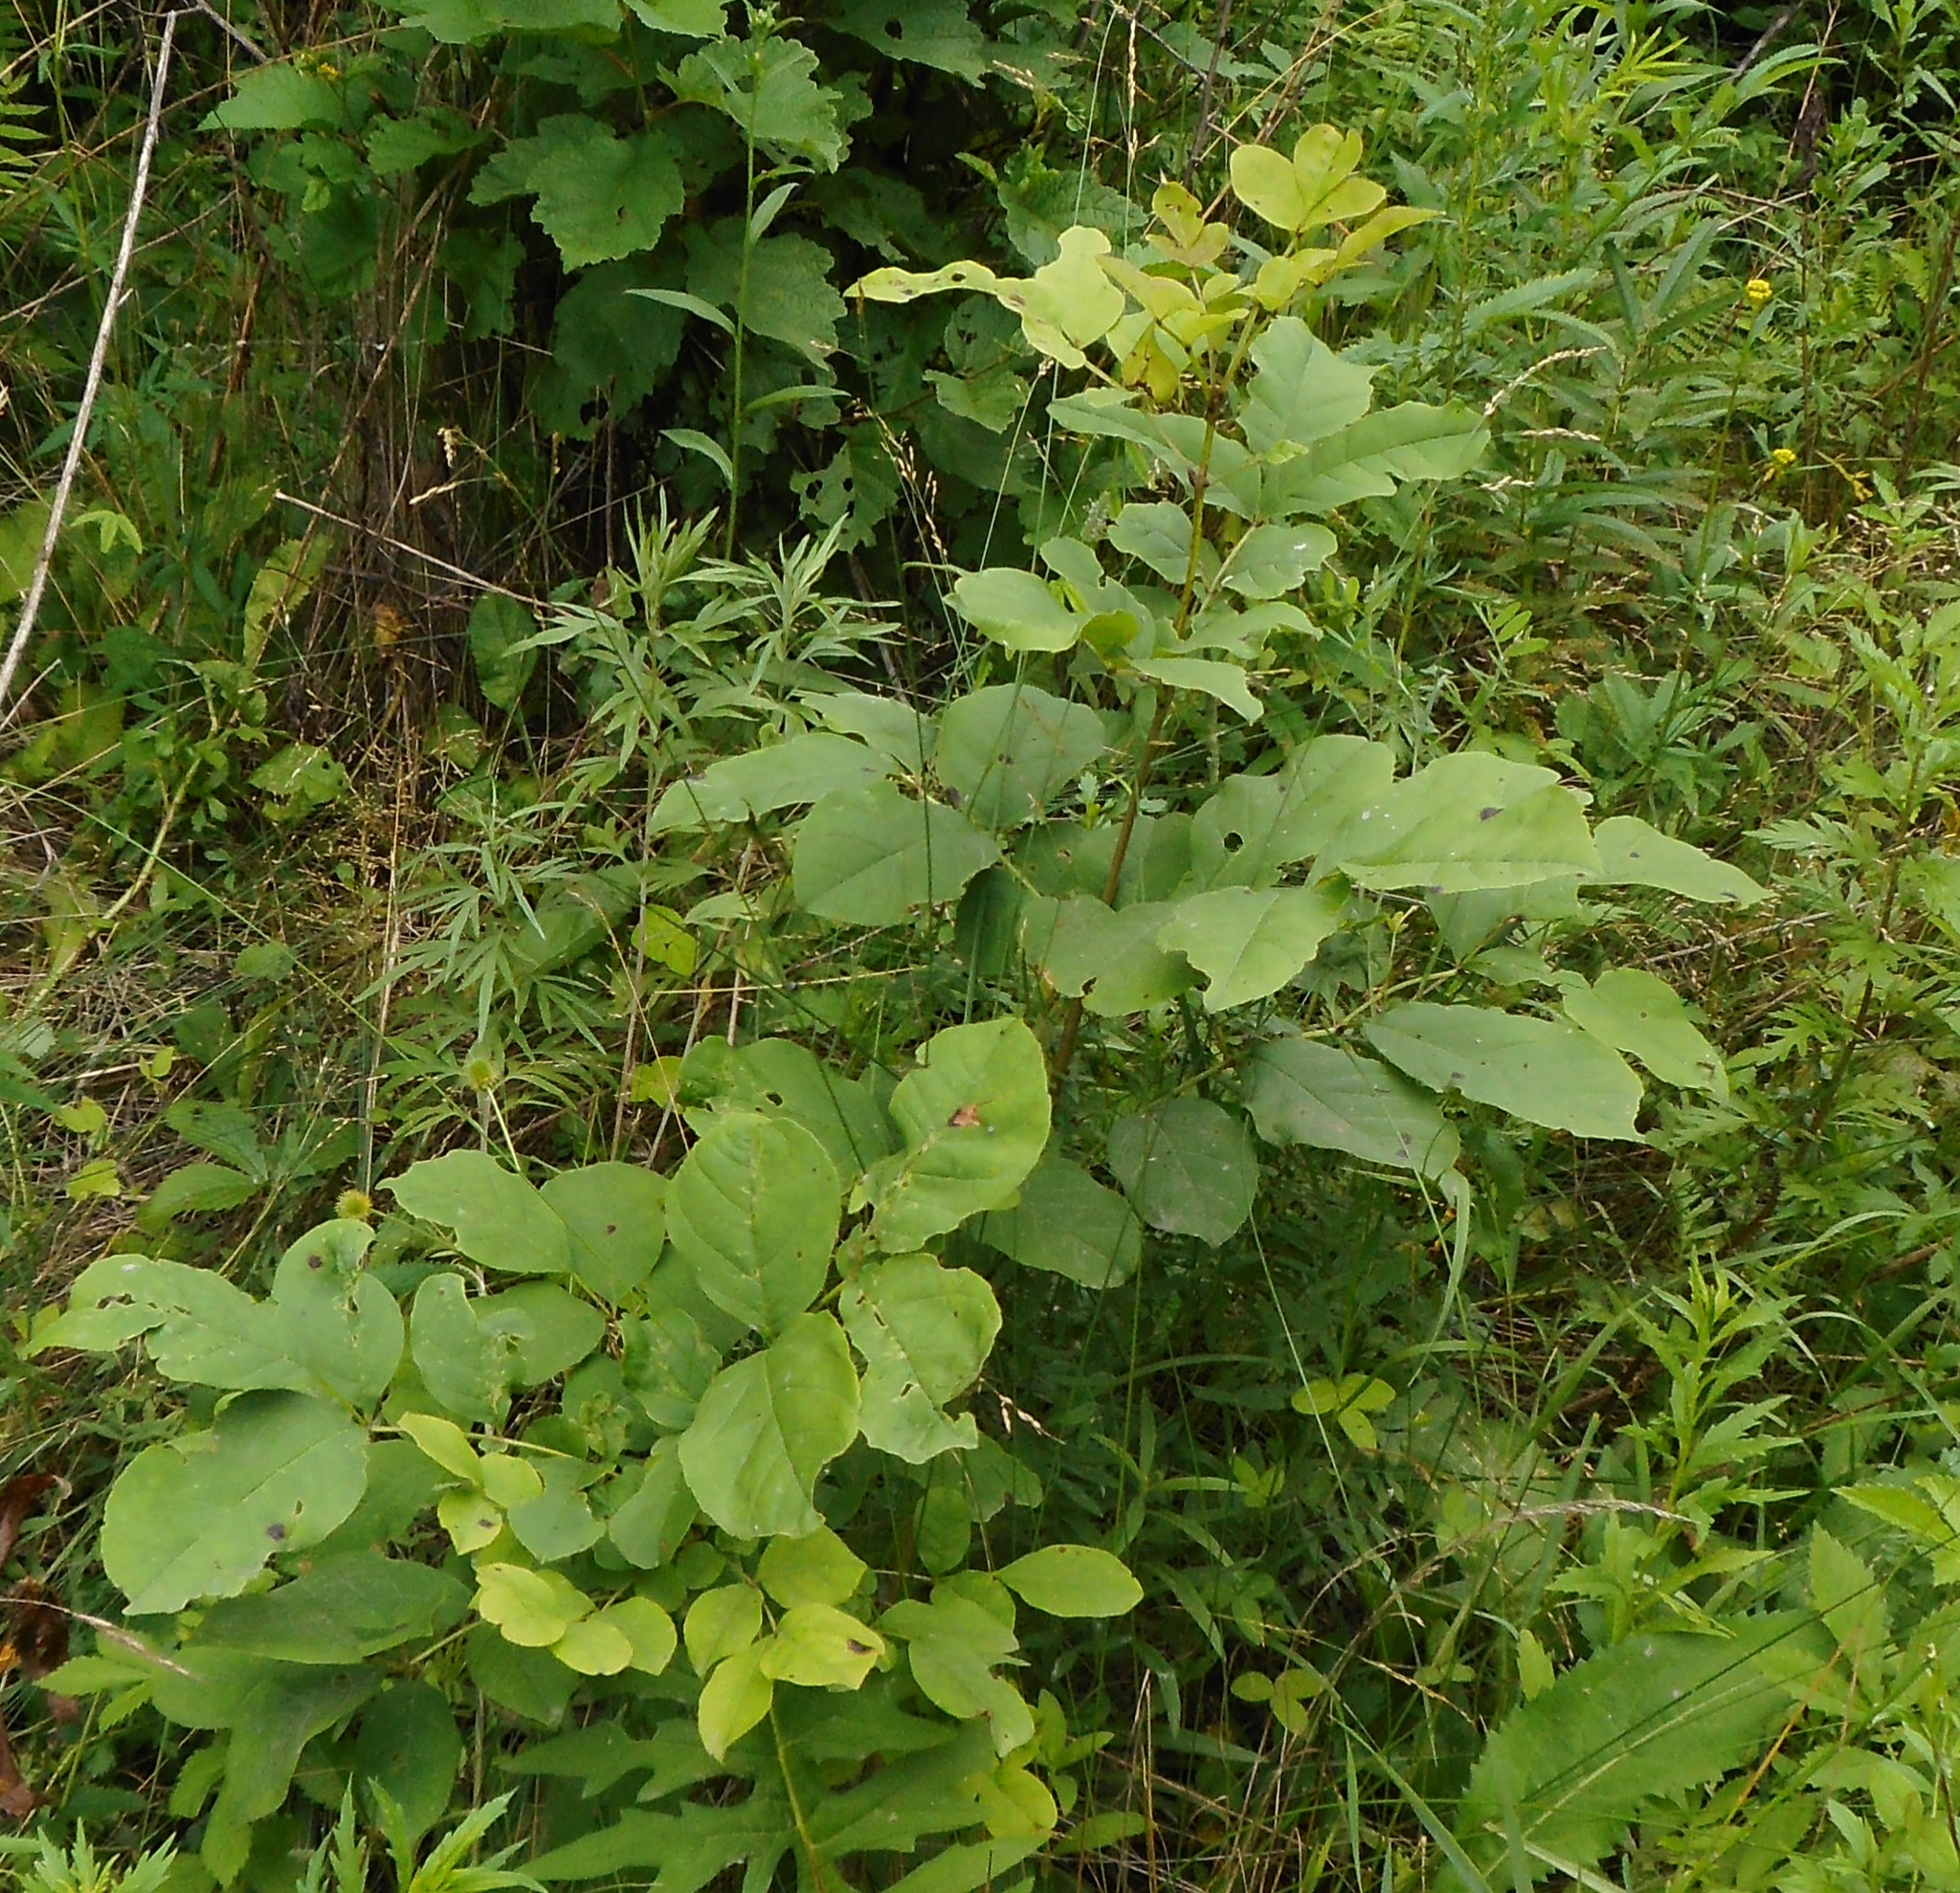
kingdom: Plantae
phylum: Tracheophyta
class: Magnoliopsida
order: Lamiales
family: Oleaceae
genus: Fraxinus
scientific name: Fraxinus chinensis
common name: Chinese ash
